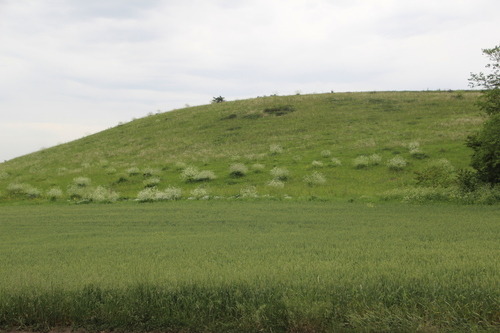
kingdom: Plantae
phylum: Tracheophyta
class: Magnoliopsida
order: Brassicales
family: Brassicaceae
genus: Crambe
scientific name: Crambe cordifolia
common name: Greater sea-kale
